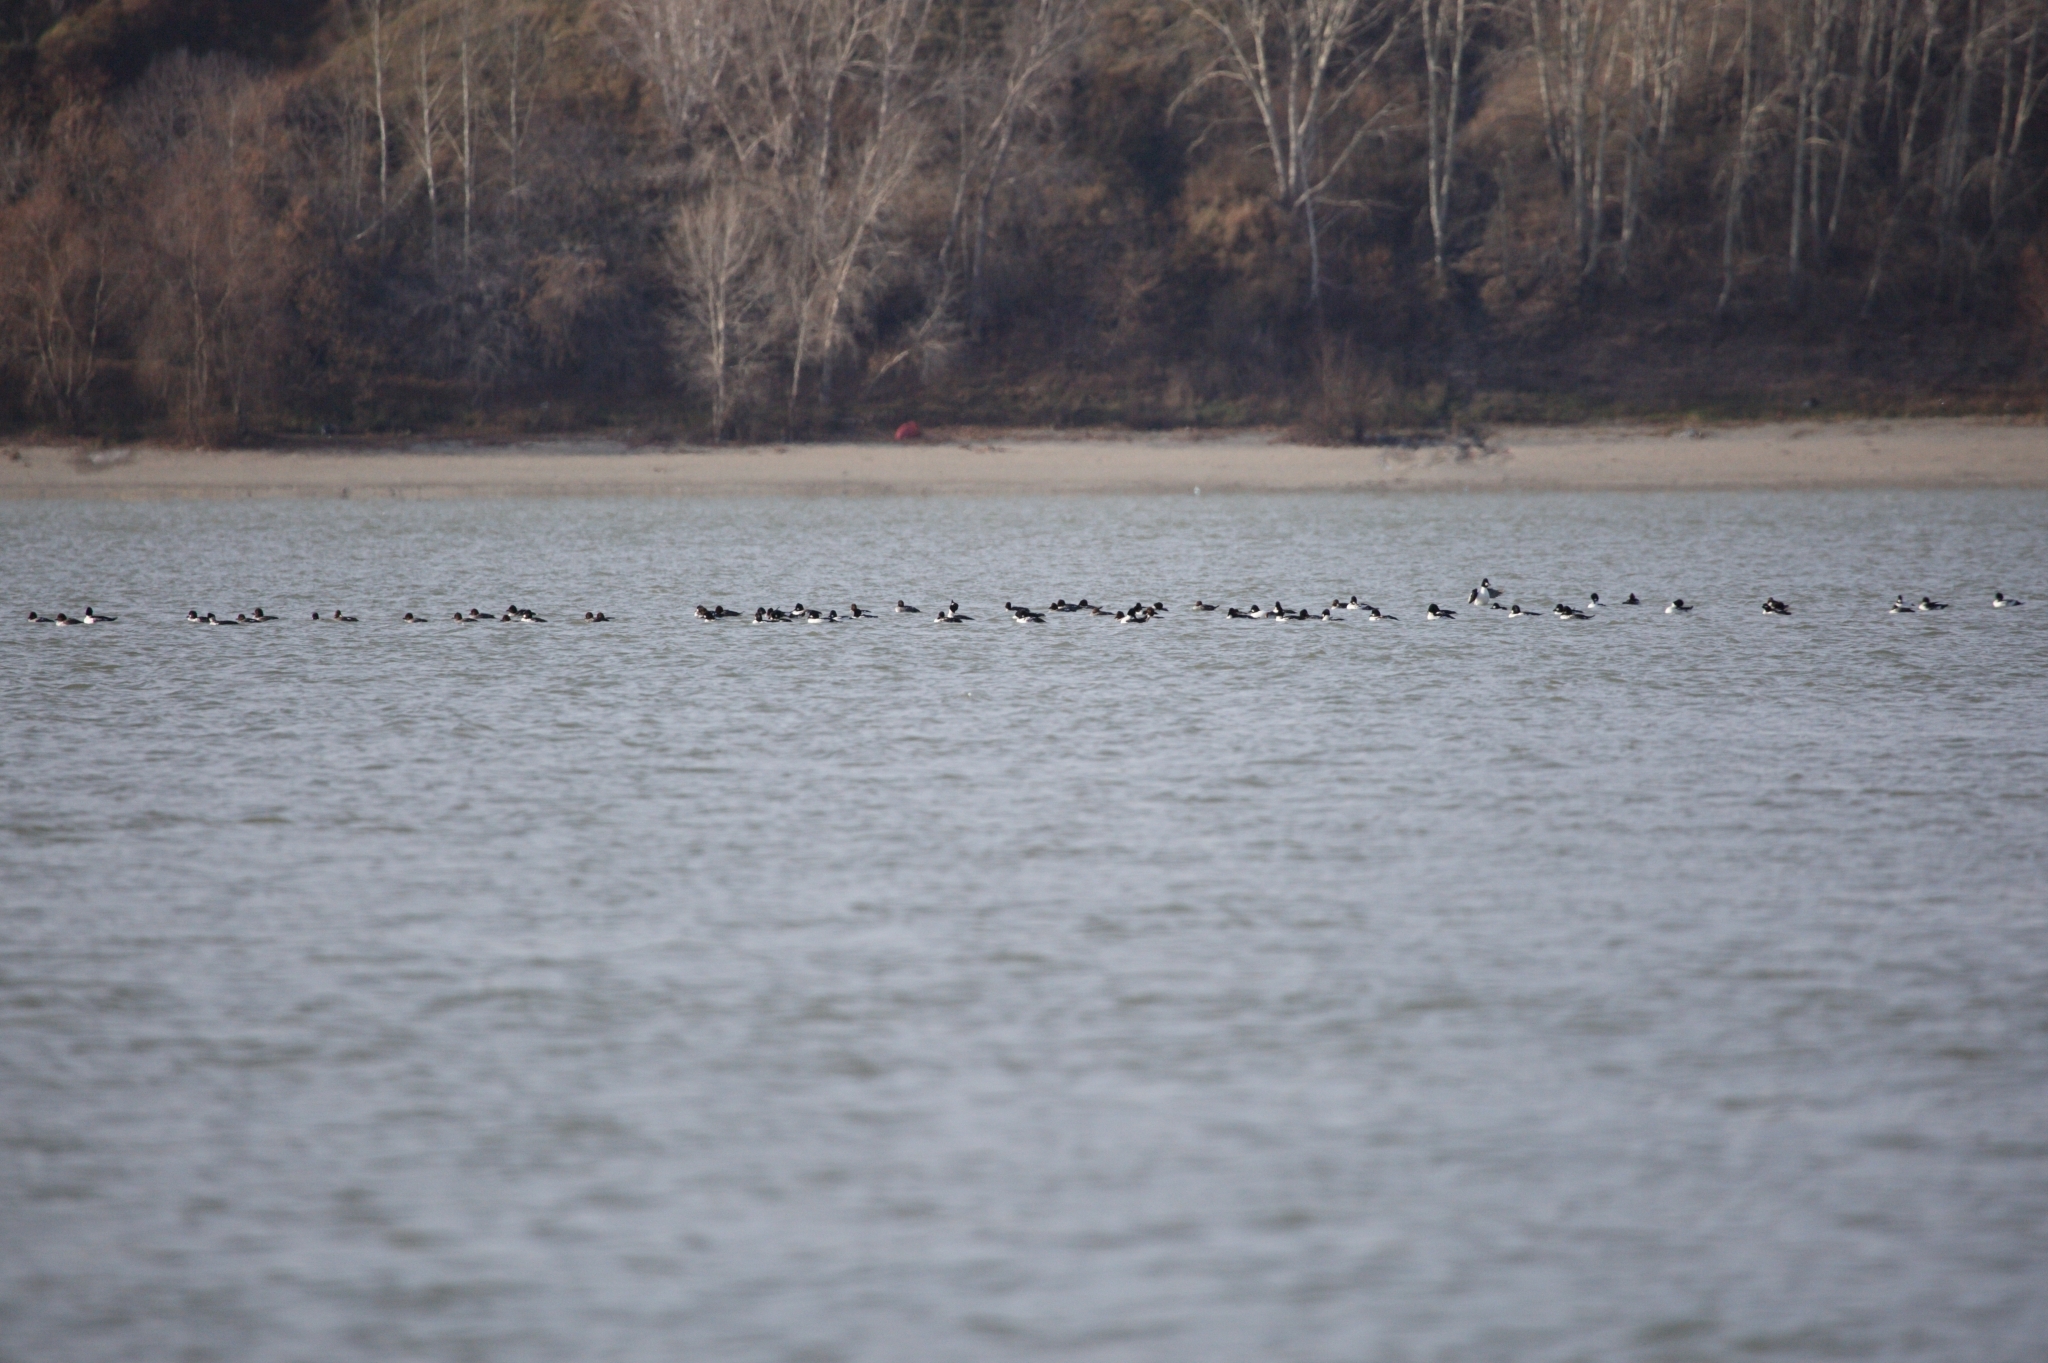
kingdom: Animalia
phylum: Chordata
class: Aves
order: Anseriformes
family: Anatidae
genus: Bucephala
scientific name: Bucephala clangula
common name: Common goldeneye
